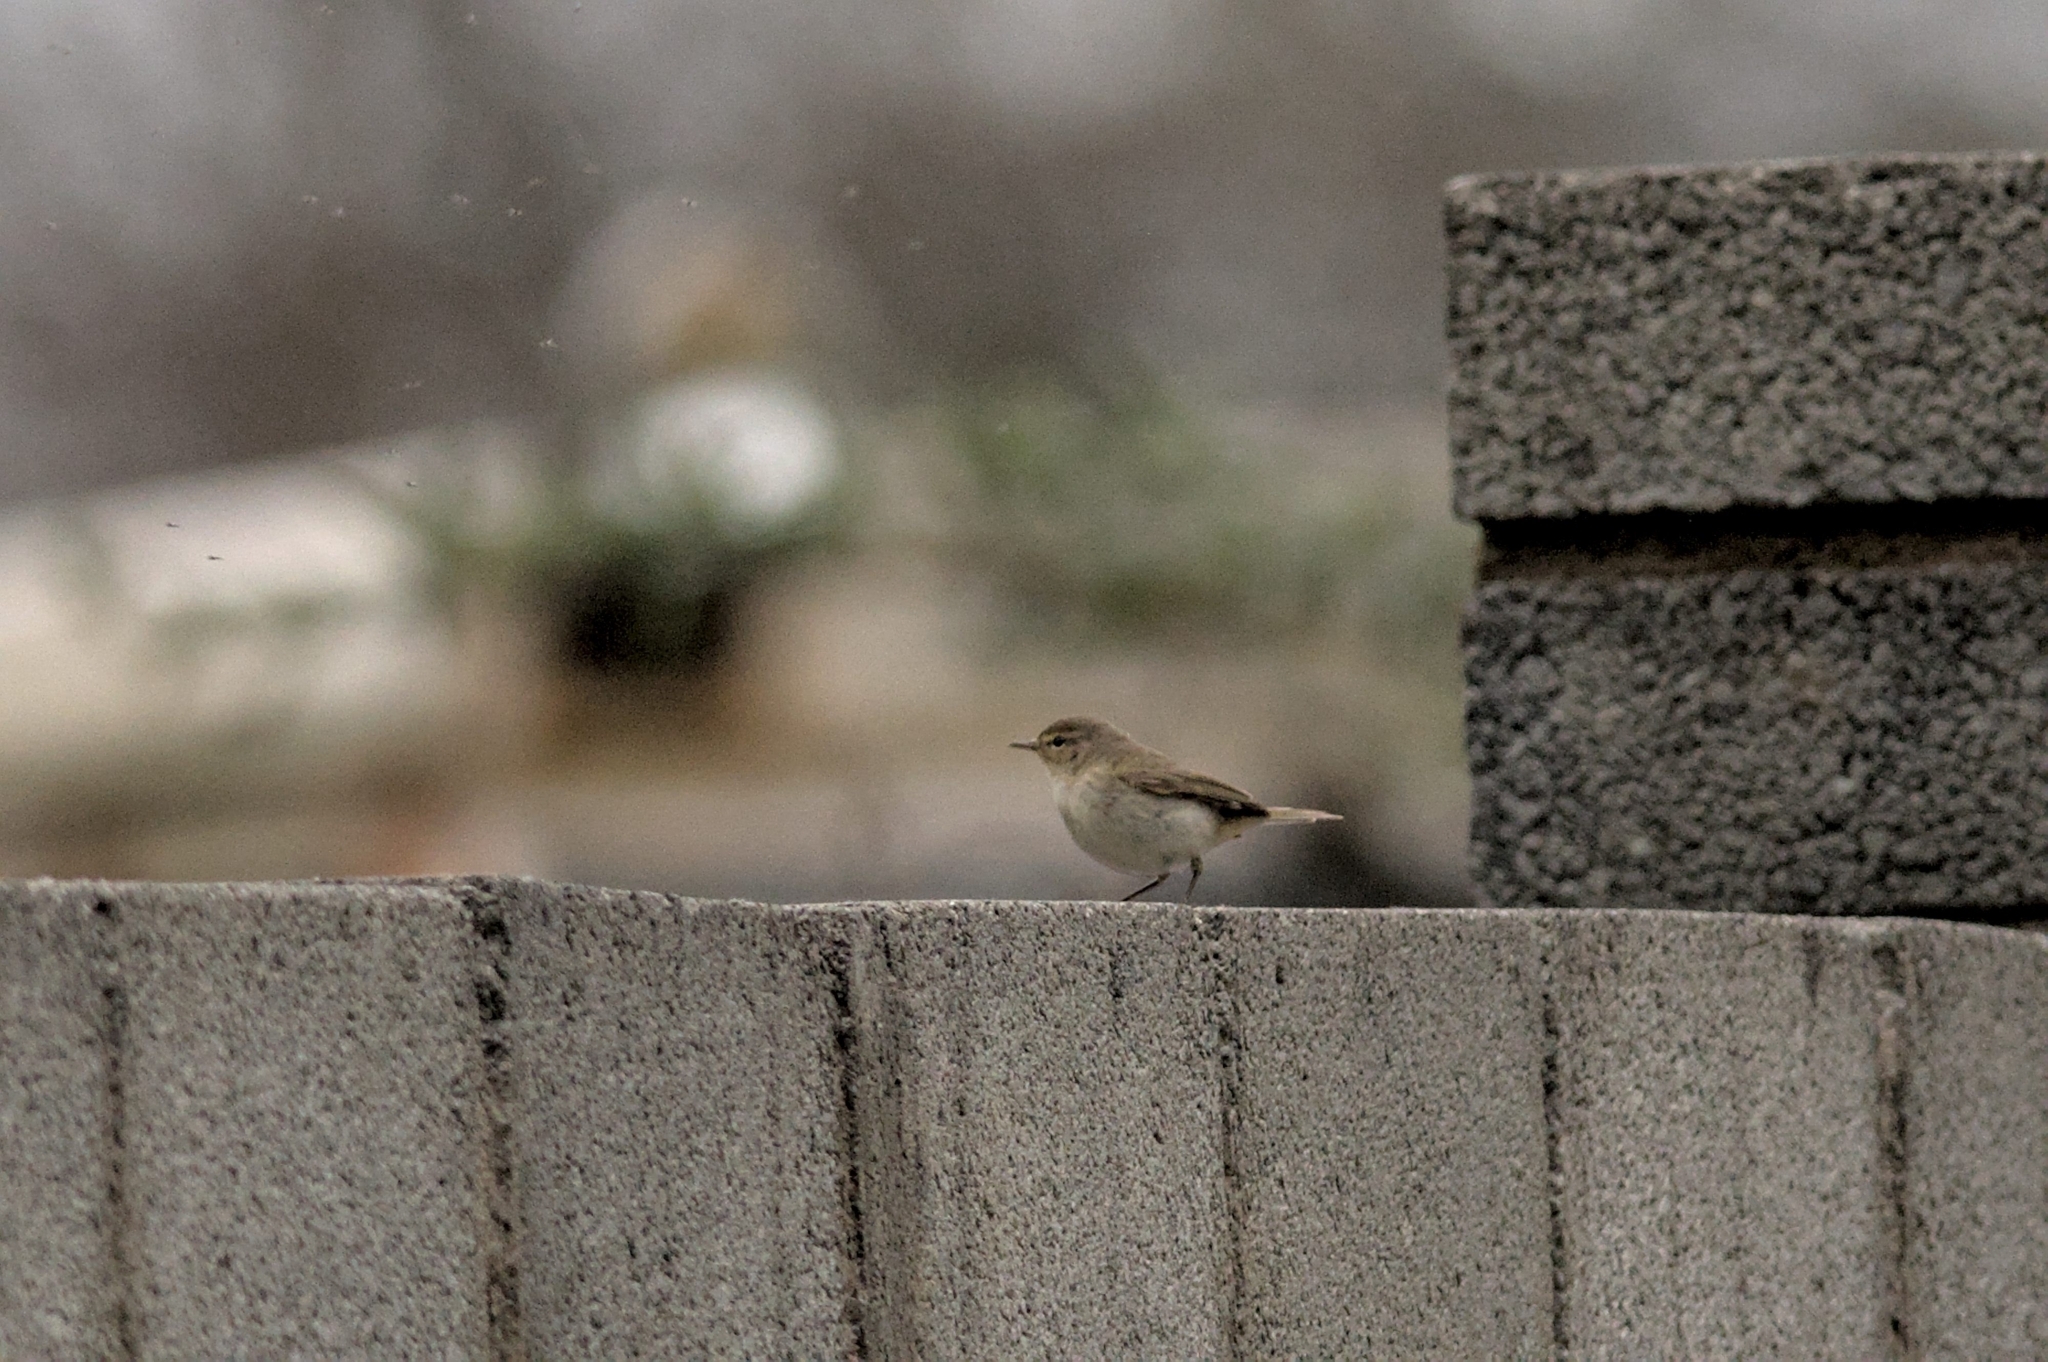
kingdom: Animalia
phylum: Chordata
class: Aves
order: Passeriformes
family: Phylloscopidae
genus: Phylloscopus
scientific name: Phylloscopus collybita
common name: Common chiffchaff
